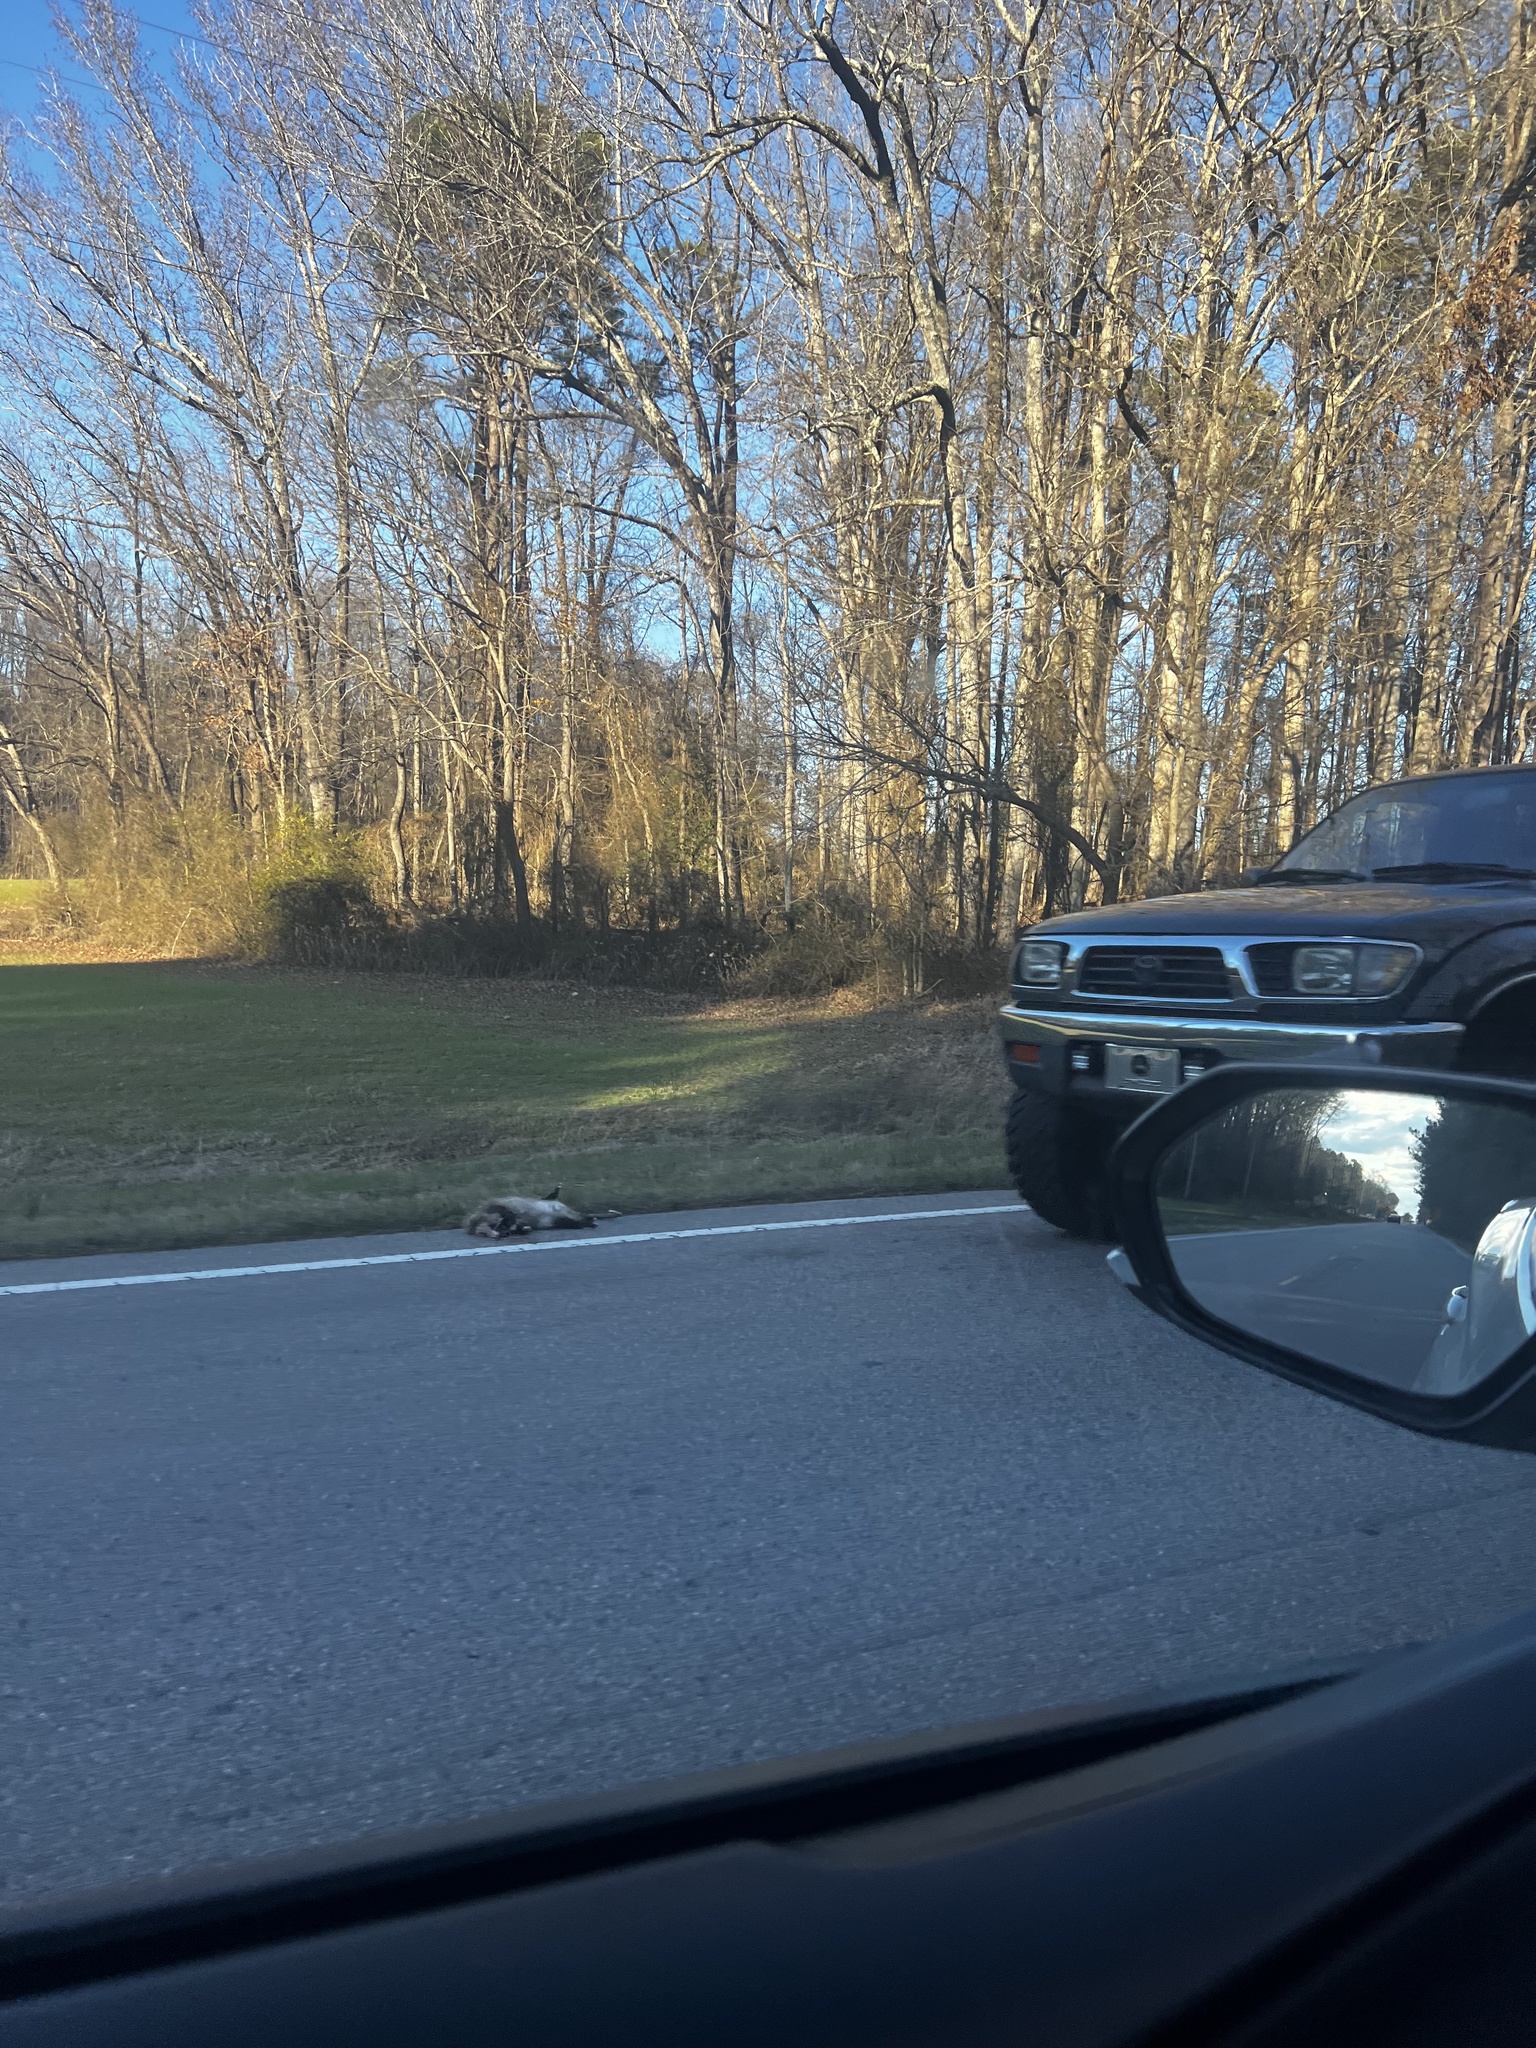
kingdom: Animalia
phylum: Chordata
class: Mammalia
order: Didelphimorphia
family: Didelphidae
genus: Didelphis
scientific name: Didelphis virginiana
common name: Virginia opossum
